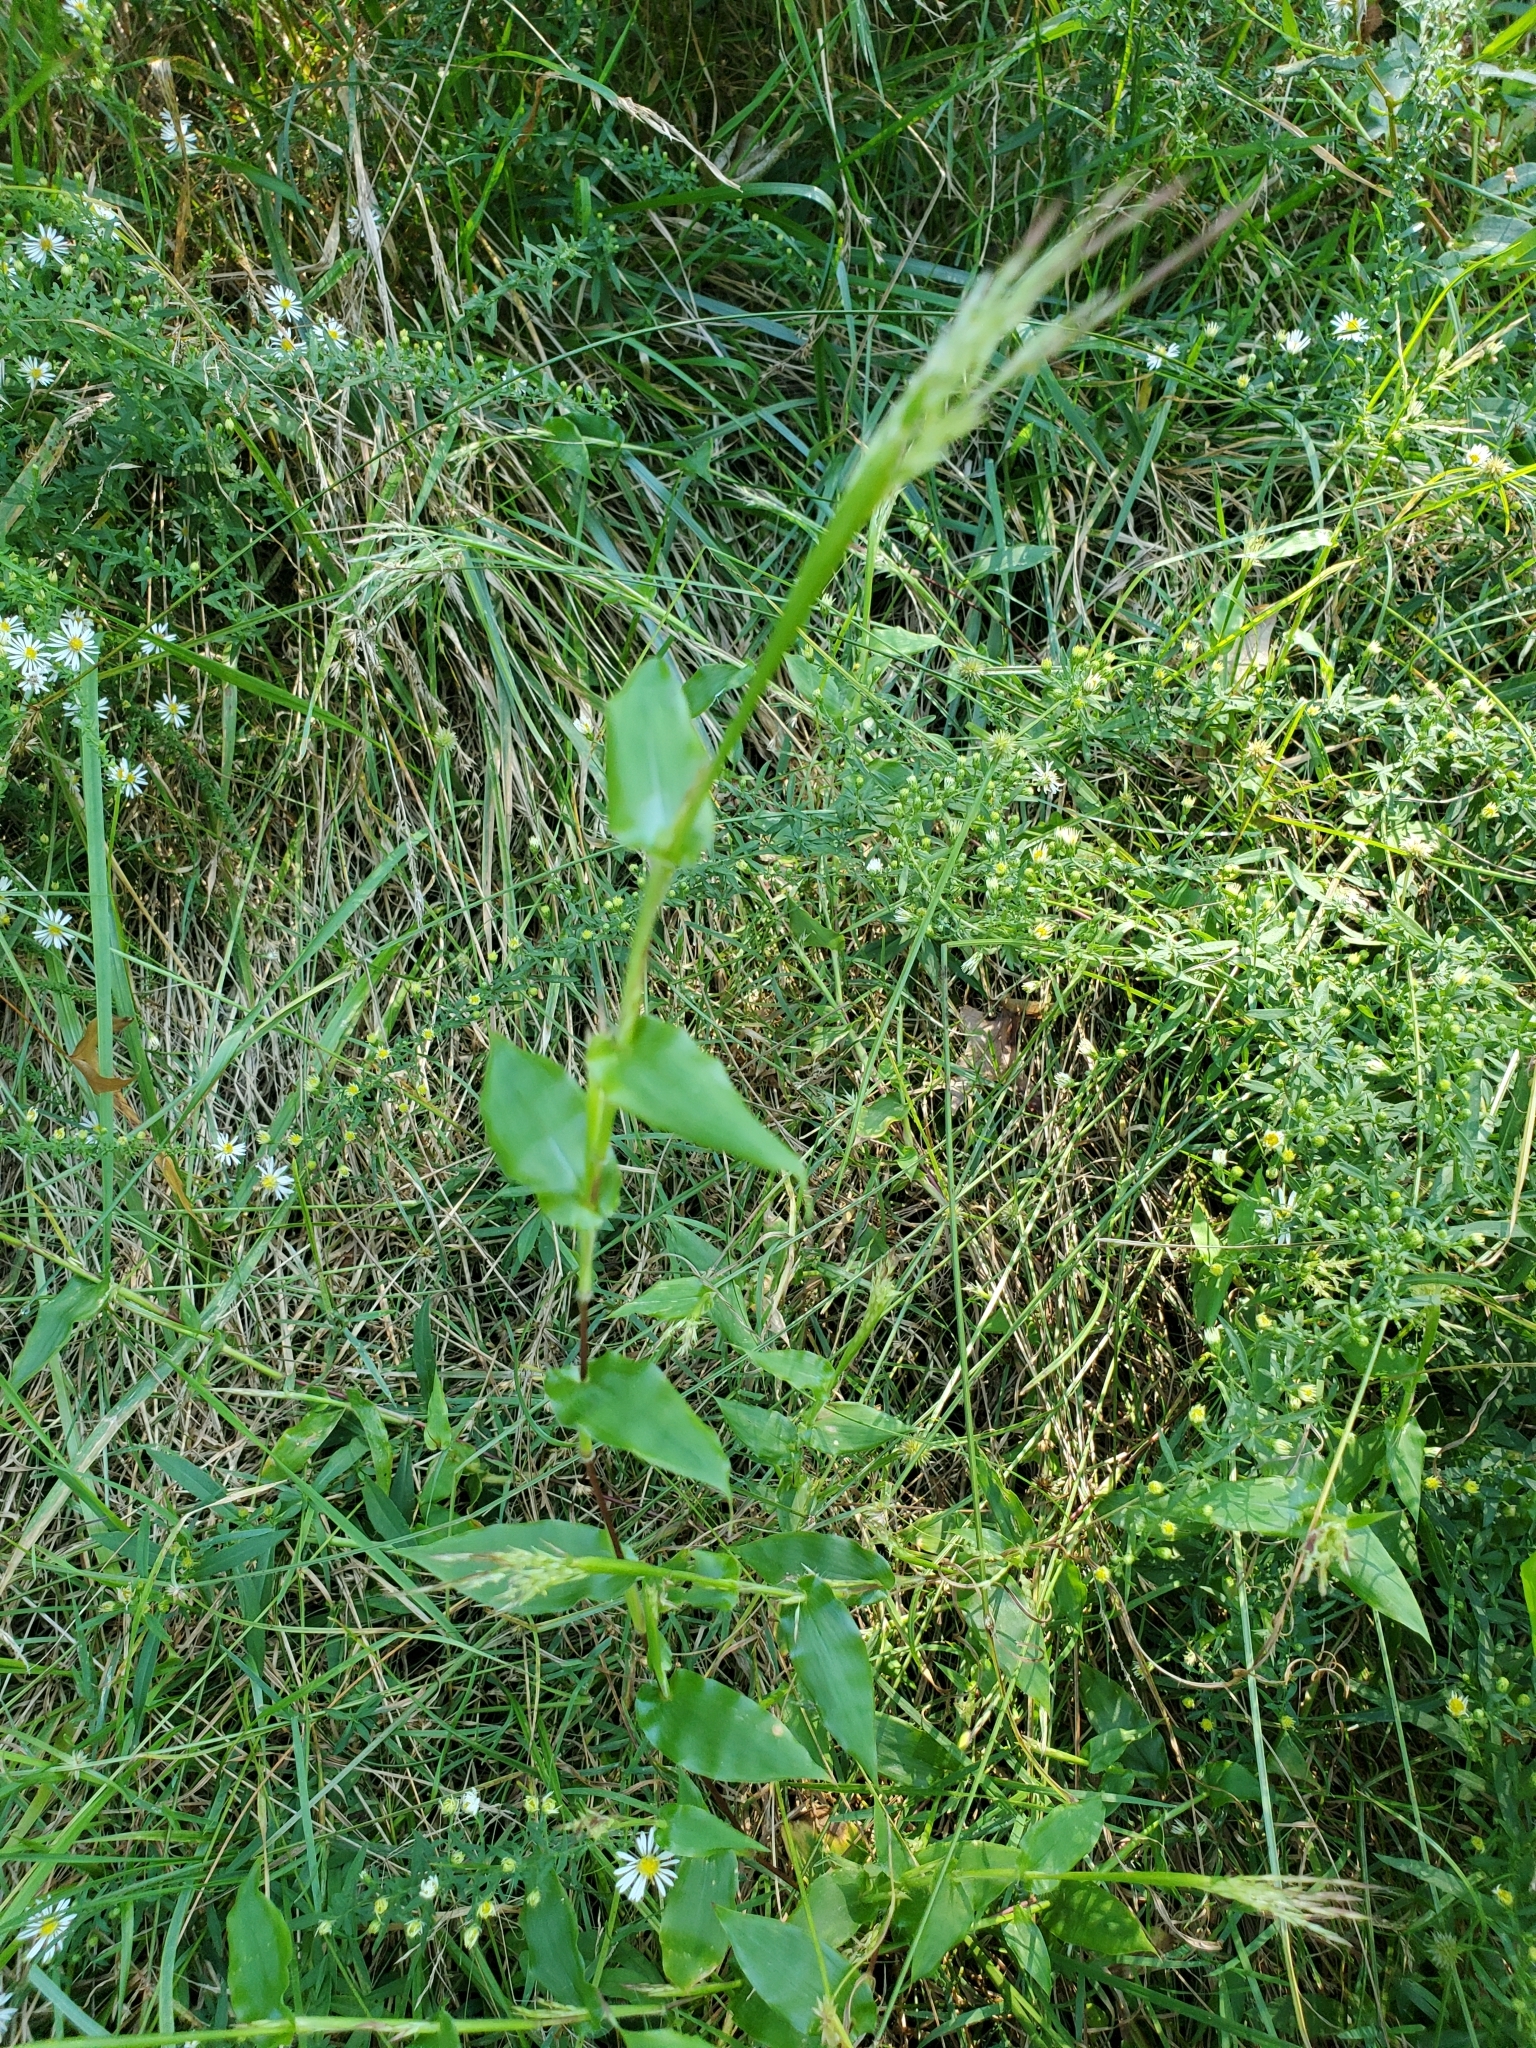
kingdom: Plantae
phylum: Tracheophyta
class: Liliopsida
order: Poales
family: Poaceae
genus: Arthraxon
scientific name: Arthraxon hispidus
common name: Small carpgrass
